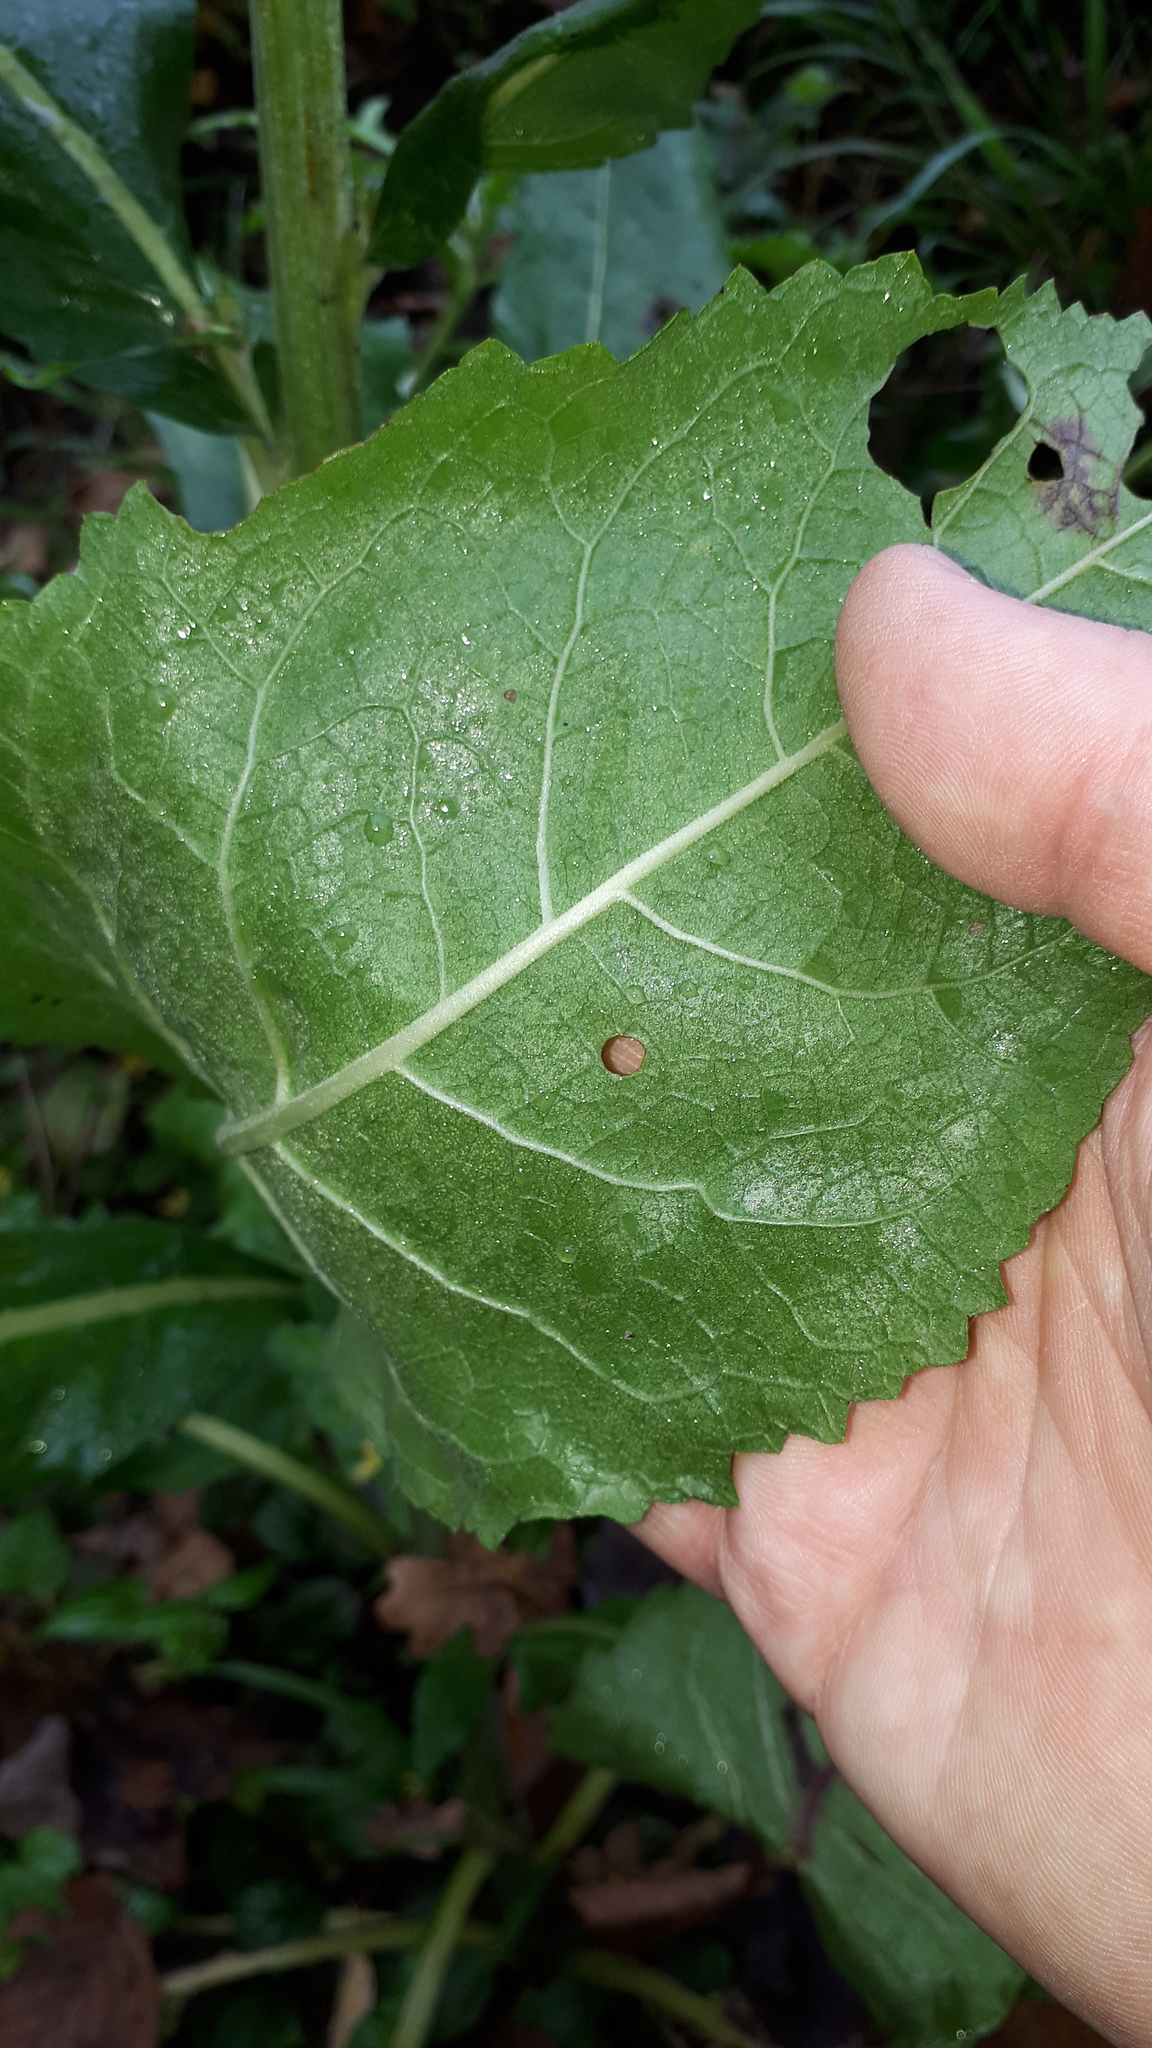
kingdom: Plantae
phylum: Tracheophyta
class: Magnoliopsida
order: Lamiales
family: Scrophulariaceae
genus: Verbascum
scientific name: Verbascum lychnitis
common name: White mullein
